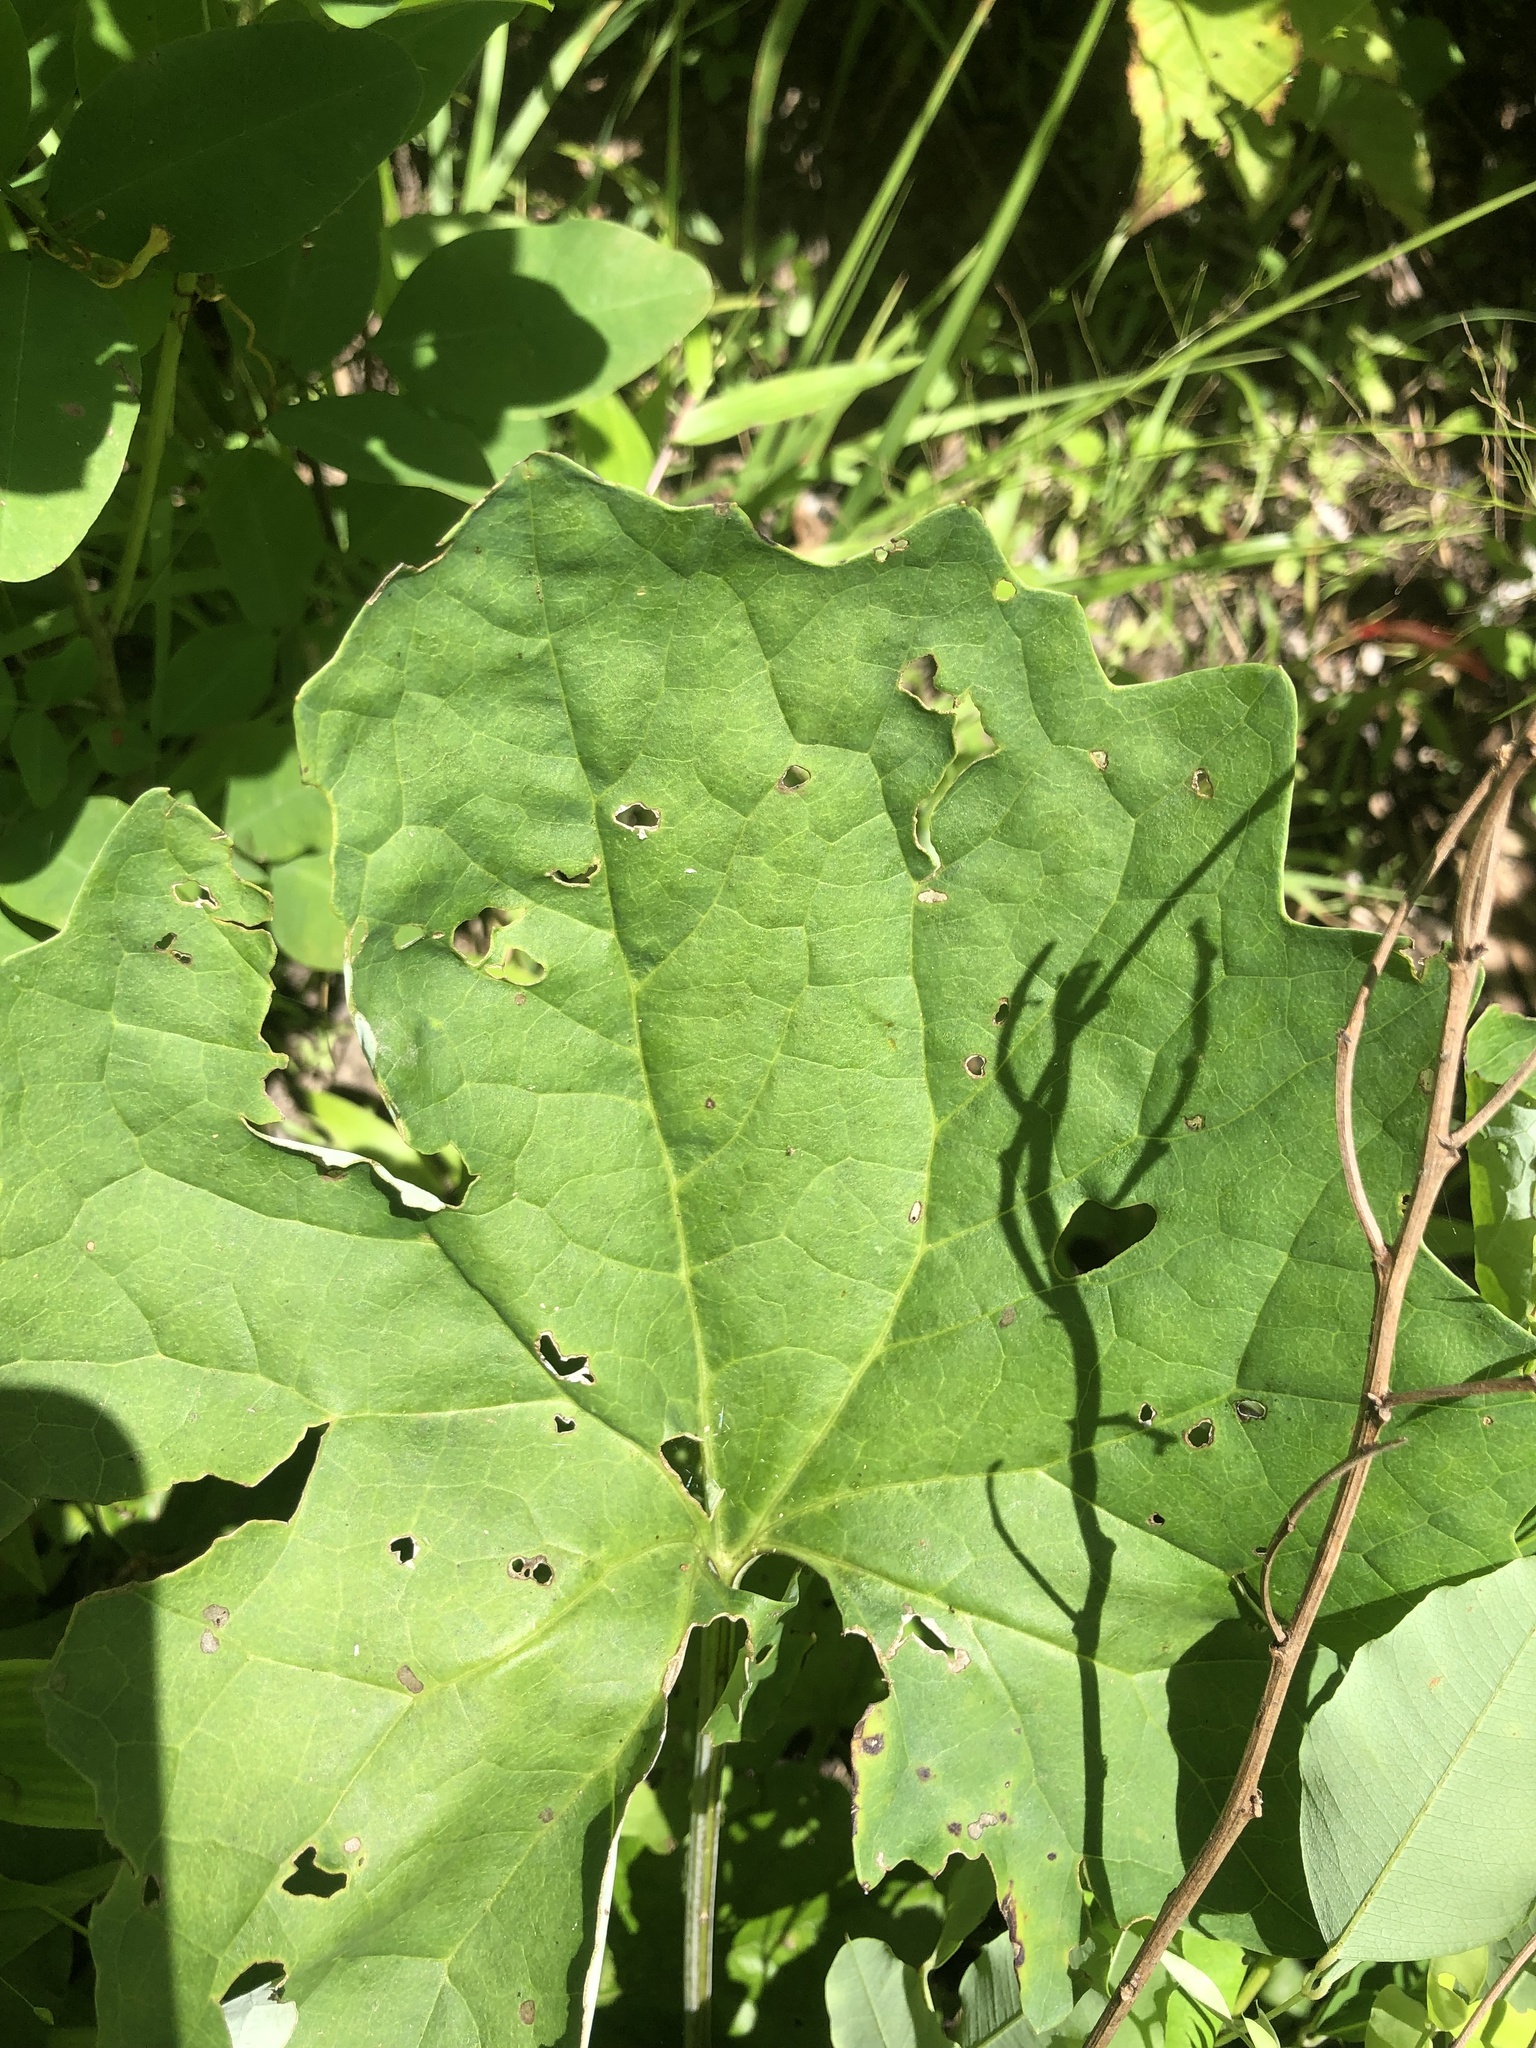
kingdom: Plantae
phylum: Tracheophyta
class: Magnoliopsida
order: Asterales
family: Asteraceae
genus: Arnoglossum
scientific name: Arnoglossum atriplicifolium
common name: Pale indian-plantain
